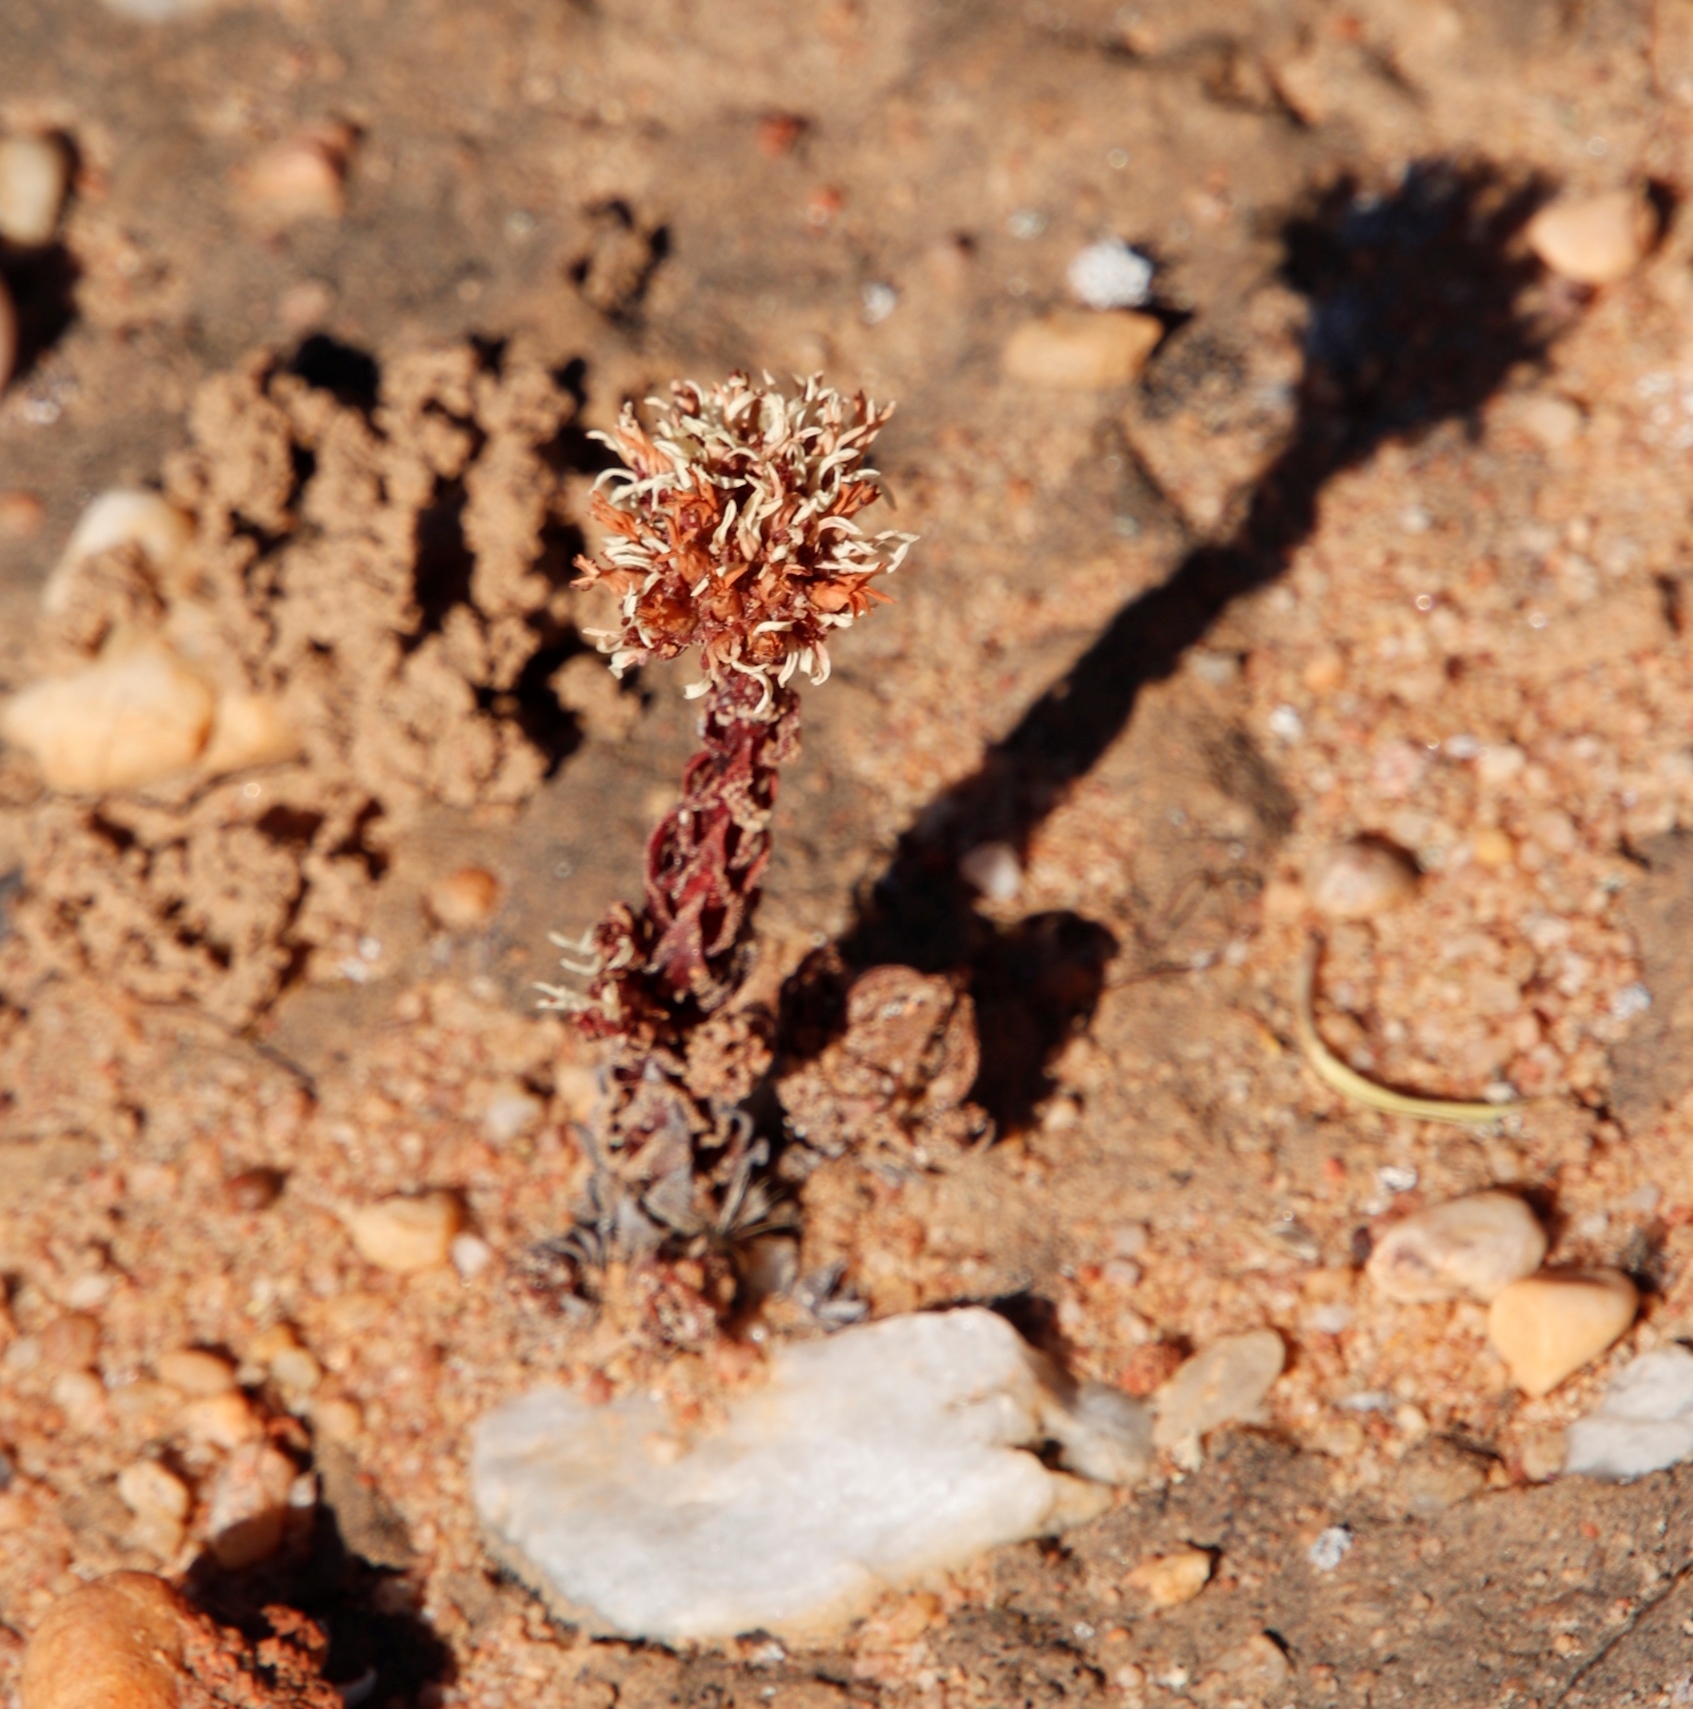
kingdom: Plantae
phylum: Tracheophyta
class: Magnoliopsida
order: Saxifragales
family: Crassulaceae
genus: Crassula
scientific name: Crassula alpestris
